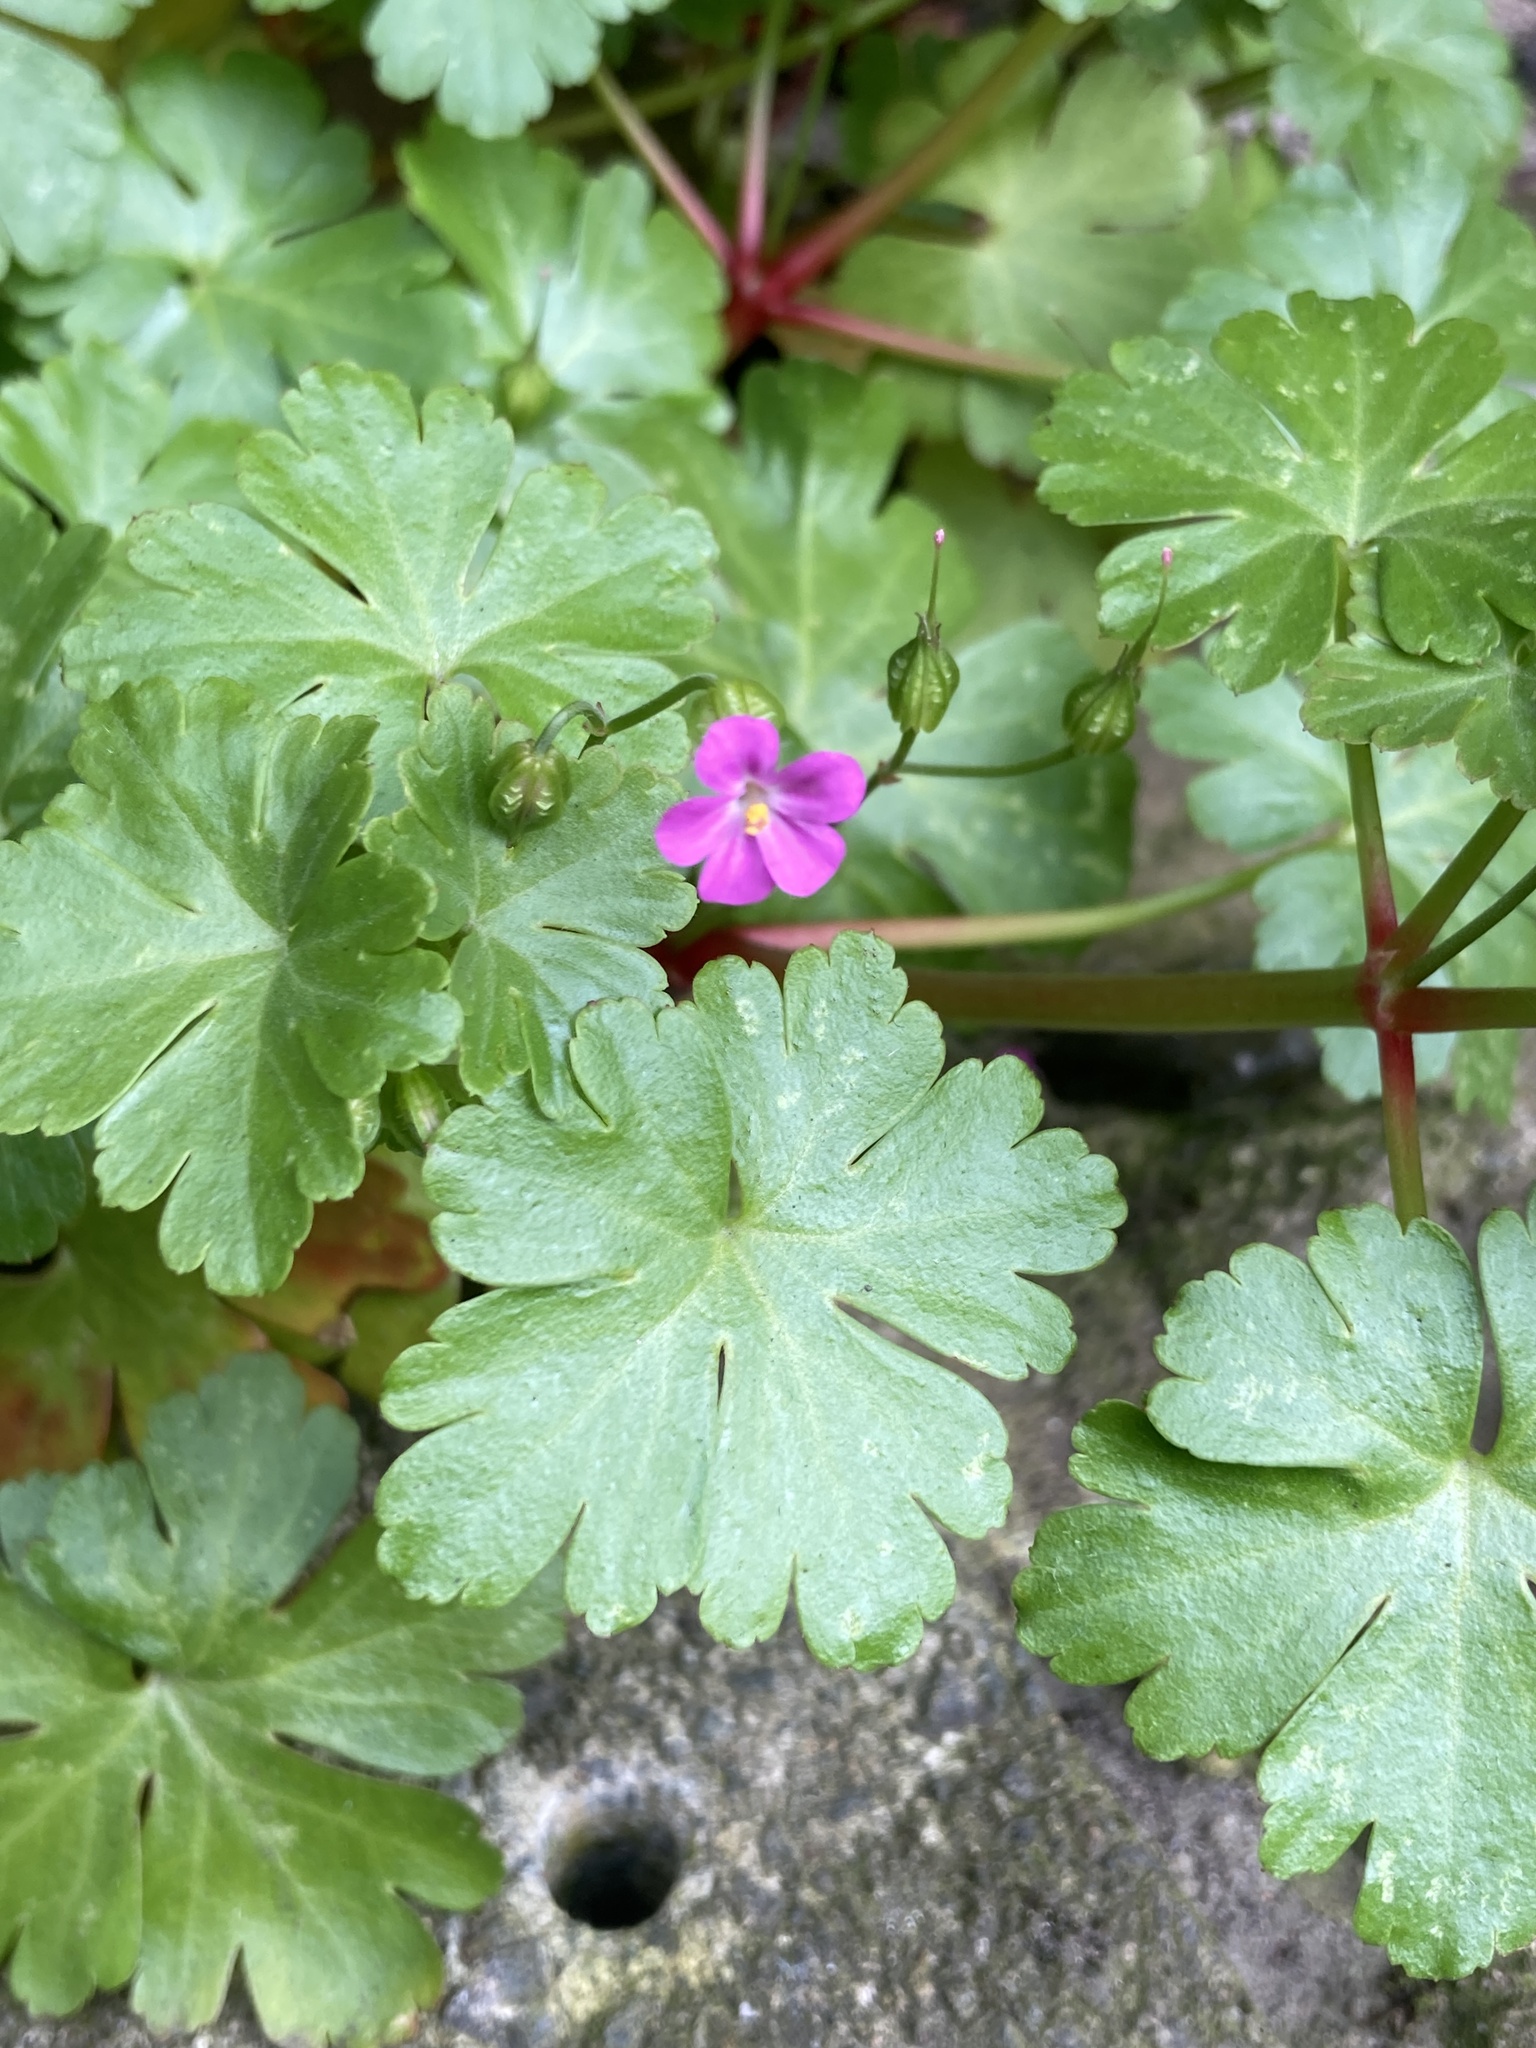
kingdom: Plantae
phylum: Tracheophyta
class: Magnoliopsida
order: Geraniales
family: Geraniaceae
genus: Geranium
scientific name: Geranium lucidum
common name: Shining crane's-bill
